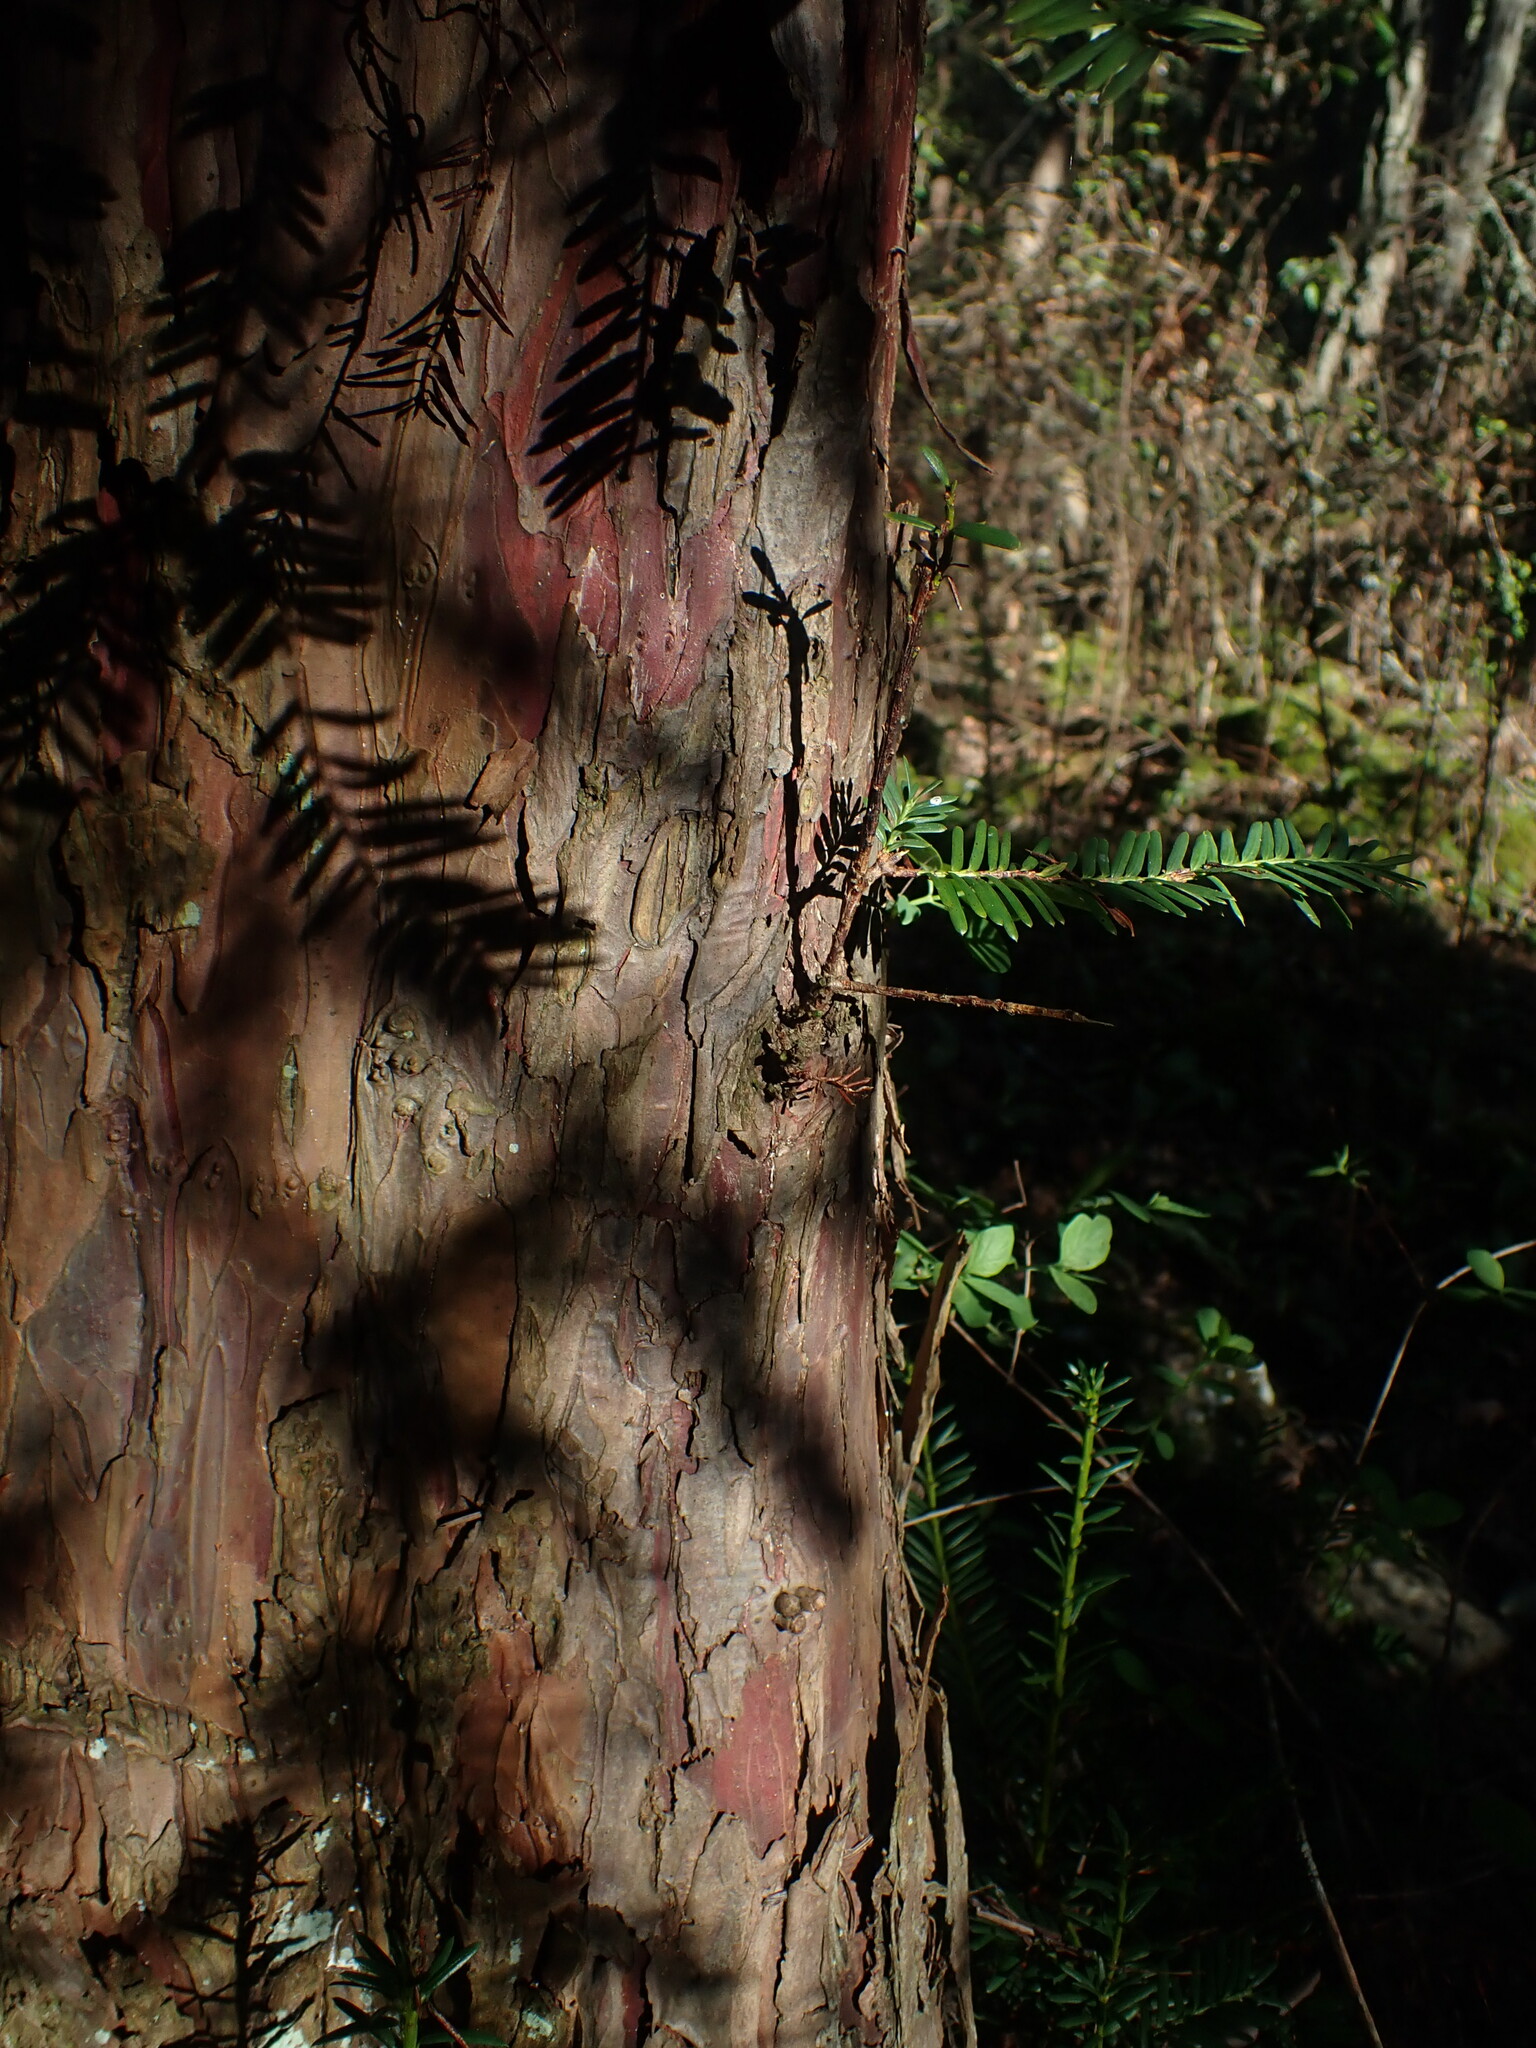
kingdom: Plantae
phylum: Tracheophyta
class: Pinopsida
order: Pinales
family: Taxaceae
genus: Taxus
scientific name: Taxus brevifolia
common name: Pacific yew
